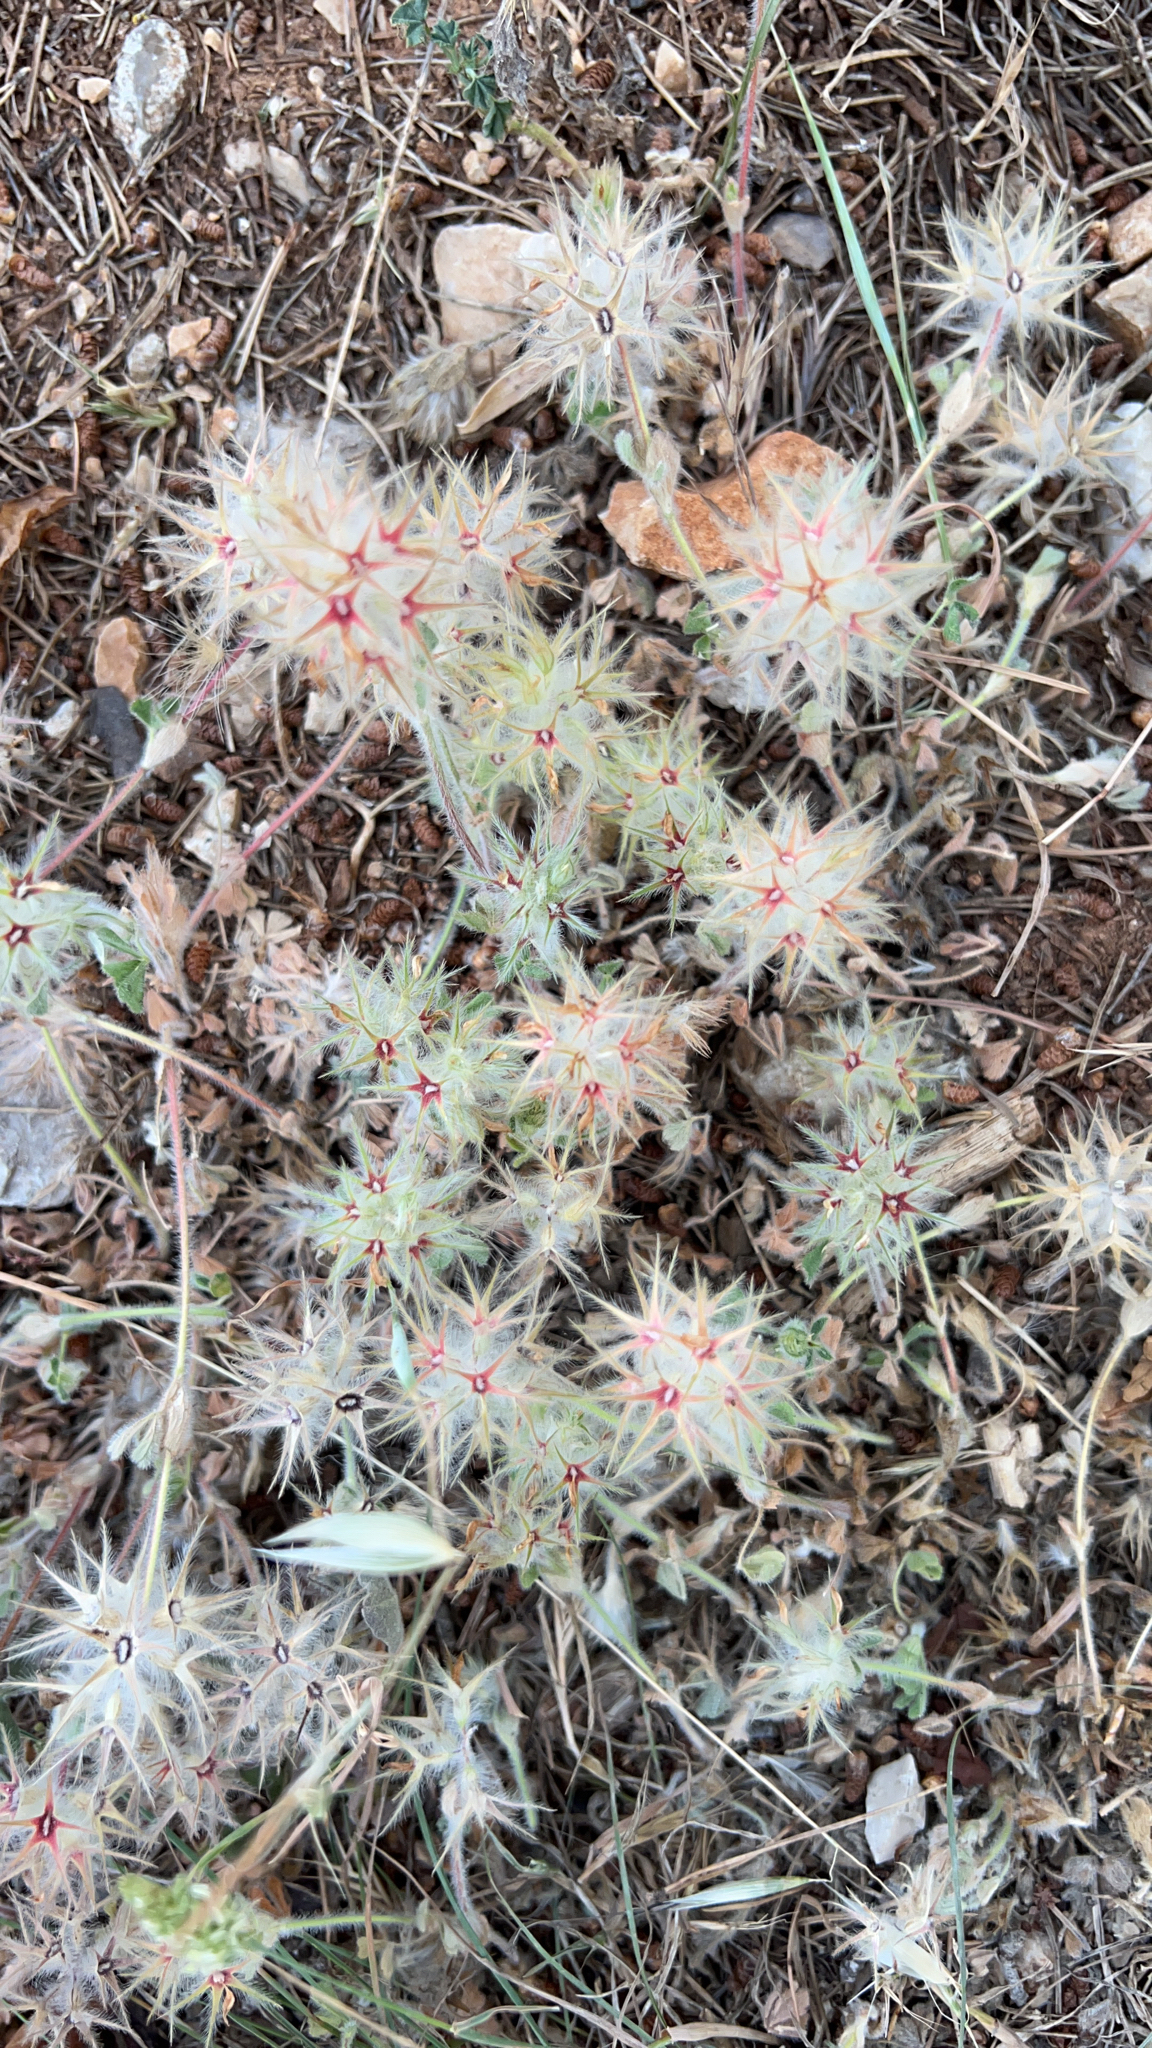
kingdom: Plantae
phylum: Tracheophyta
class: Magnoliopsida
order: Fabales
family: Fabaceae
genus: Trifolium
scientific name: Trifolium stellatum
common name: Starry clover
